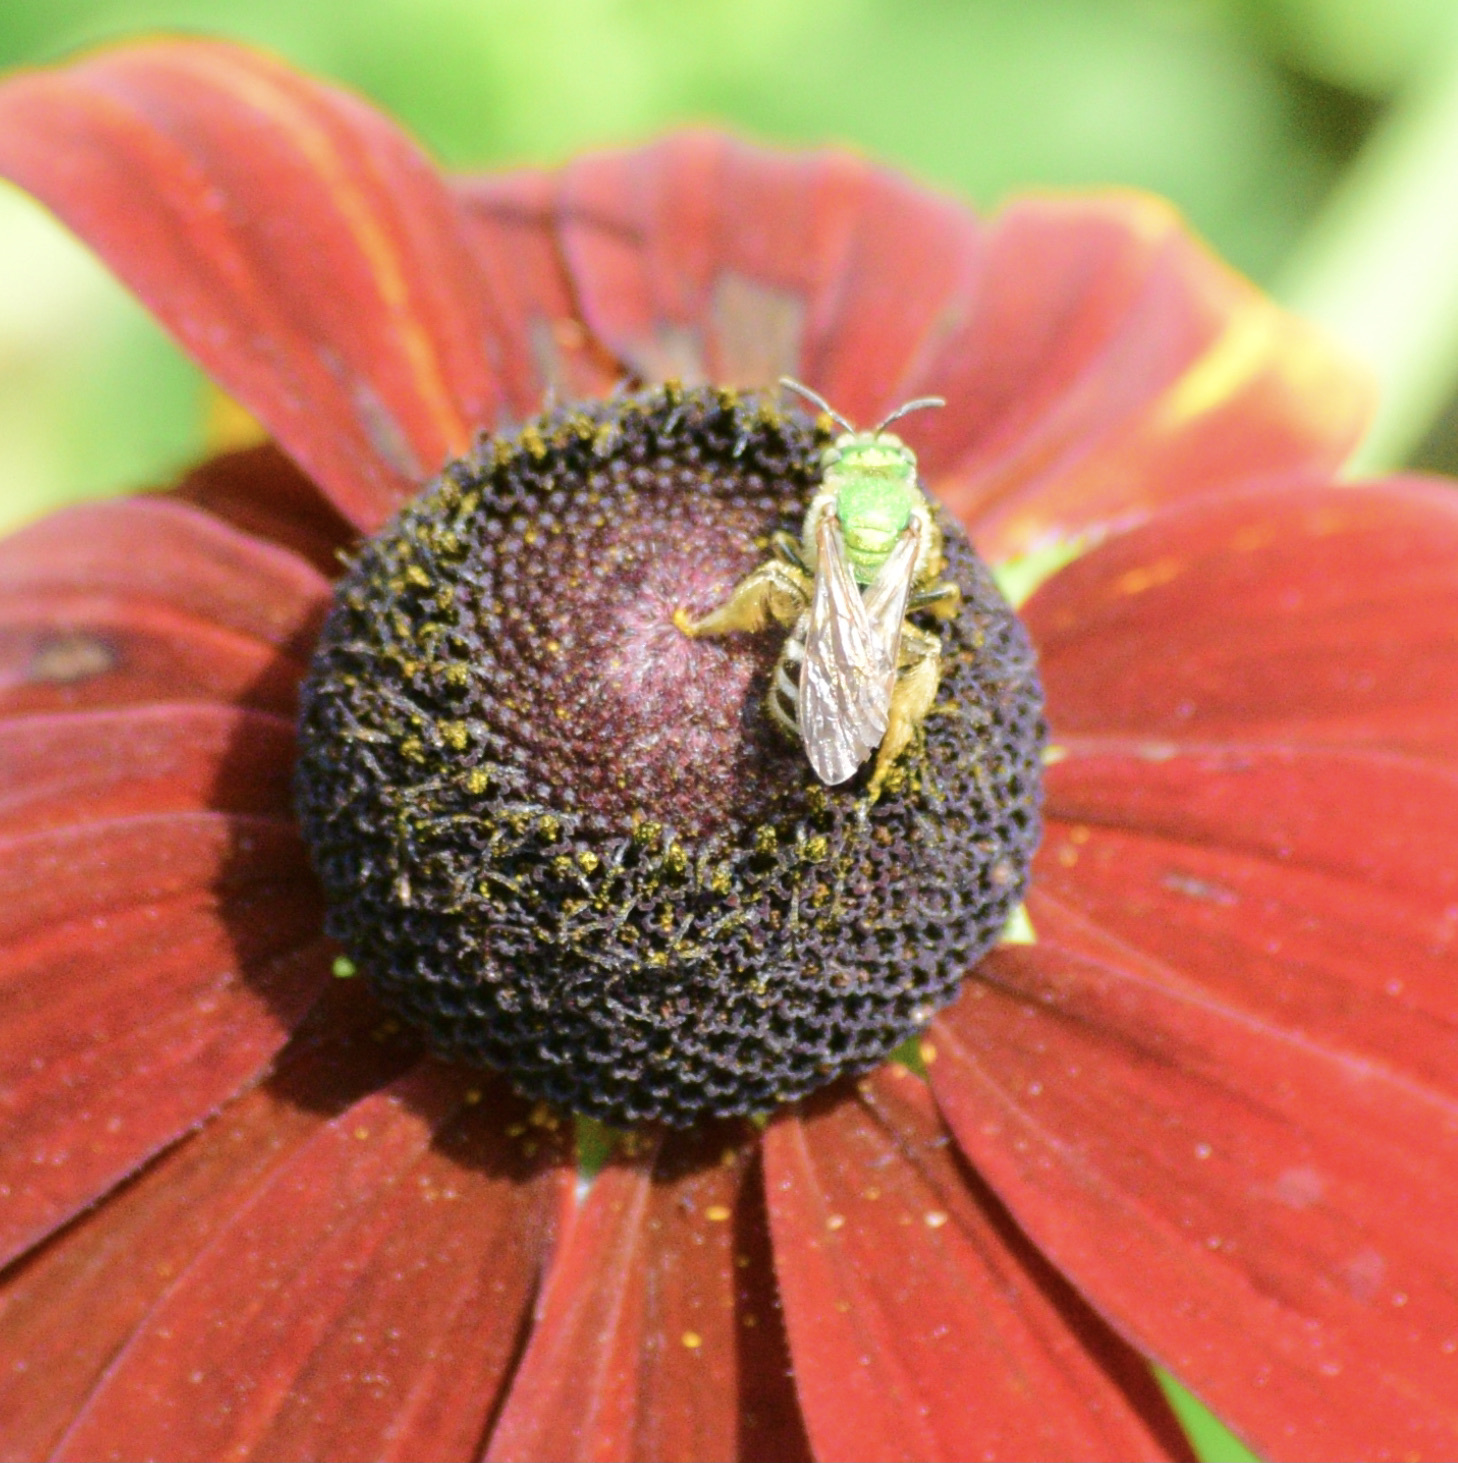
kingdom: Animalia
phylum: Arthropoda
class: Insecta
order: Hymenoptera
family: Halictidae
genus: Agapostemon
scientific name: Agapostemon virescens
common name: Bicolored striped sweat bee
